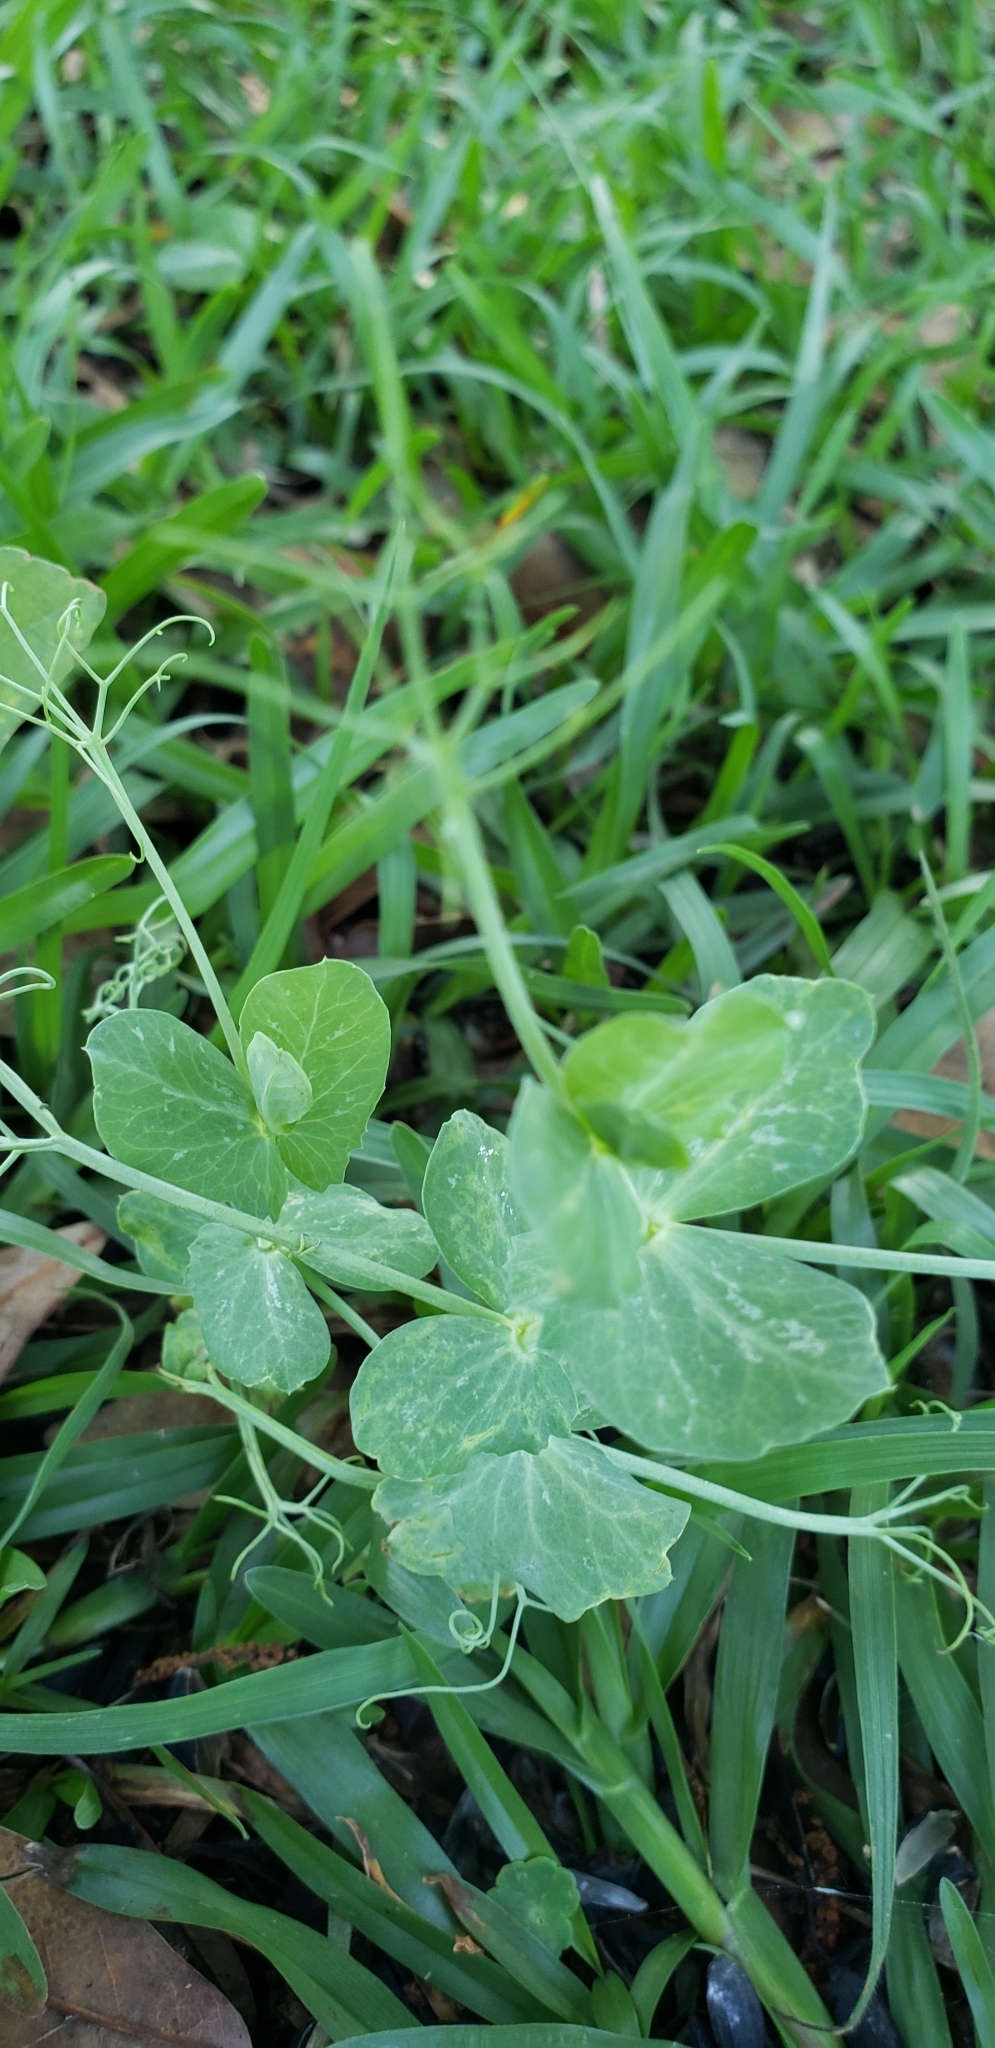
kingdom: Plantae
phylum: Tracheophyta
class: Magnoliopsida
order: Fabales
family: Fabaceae
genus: Lathyrus
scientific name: Lathyrus oleraceus
